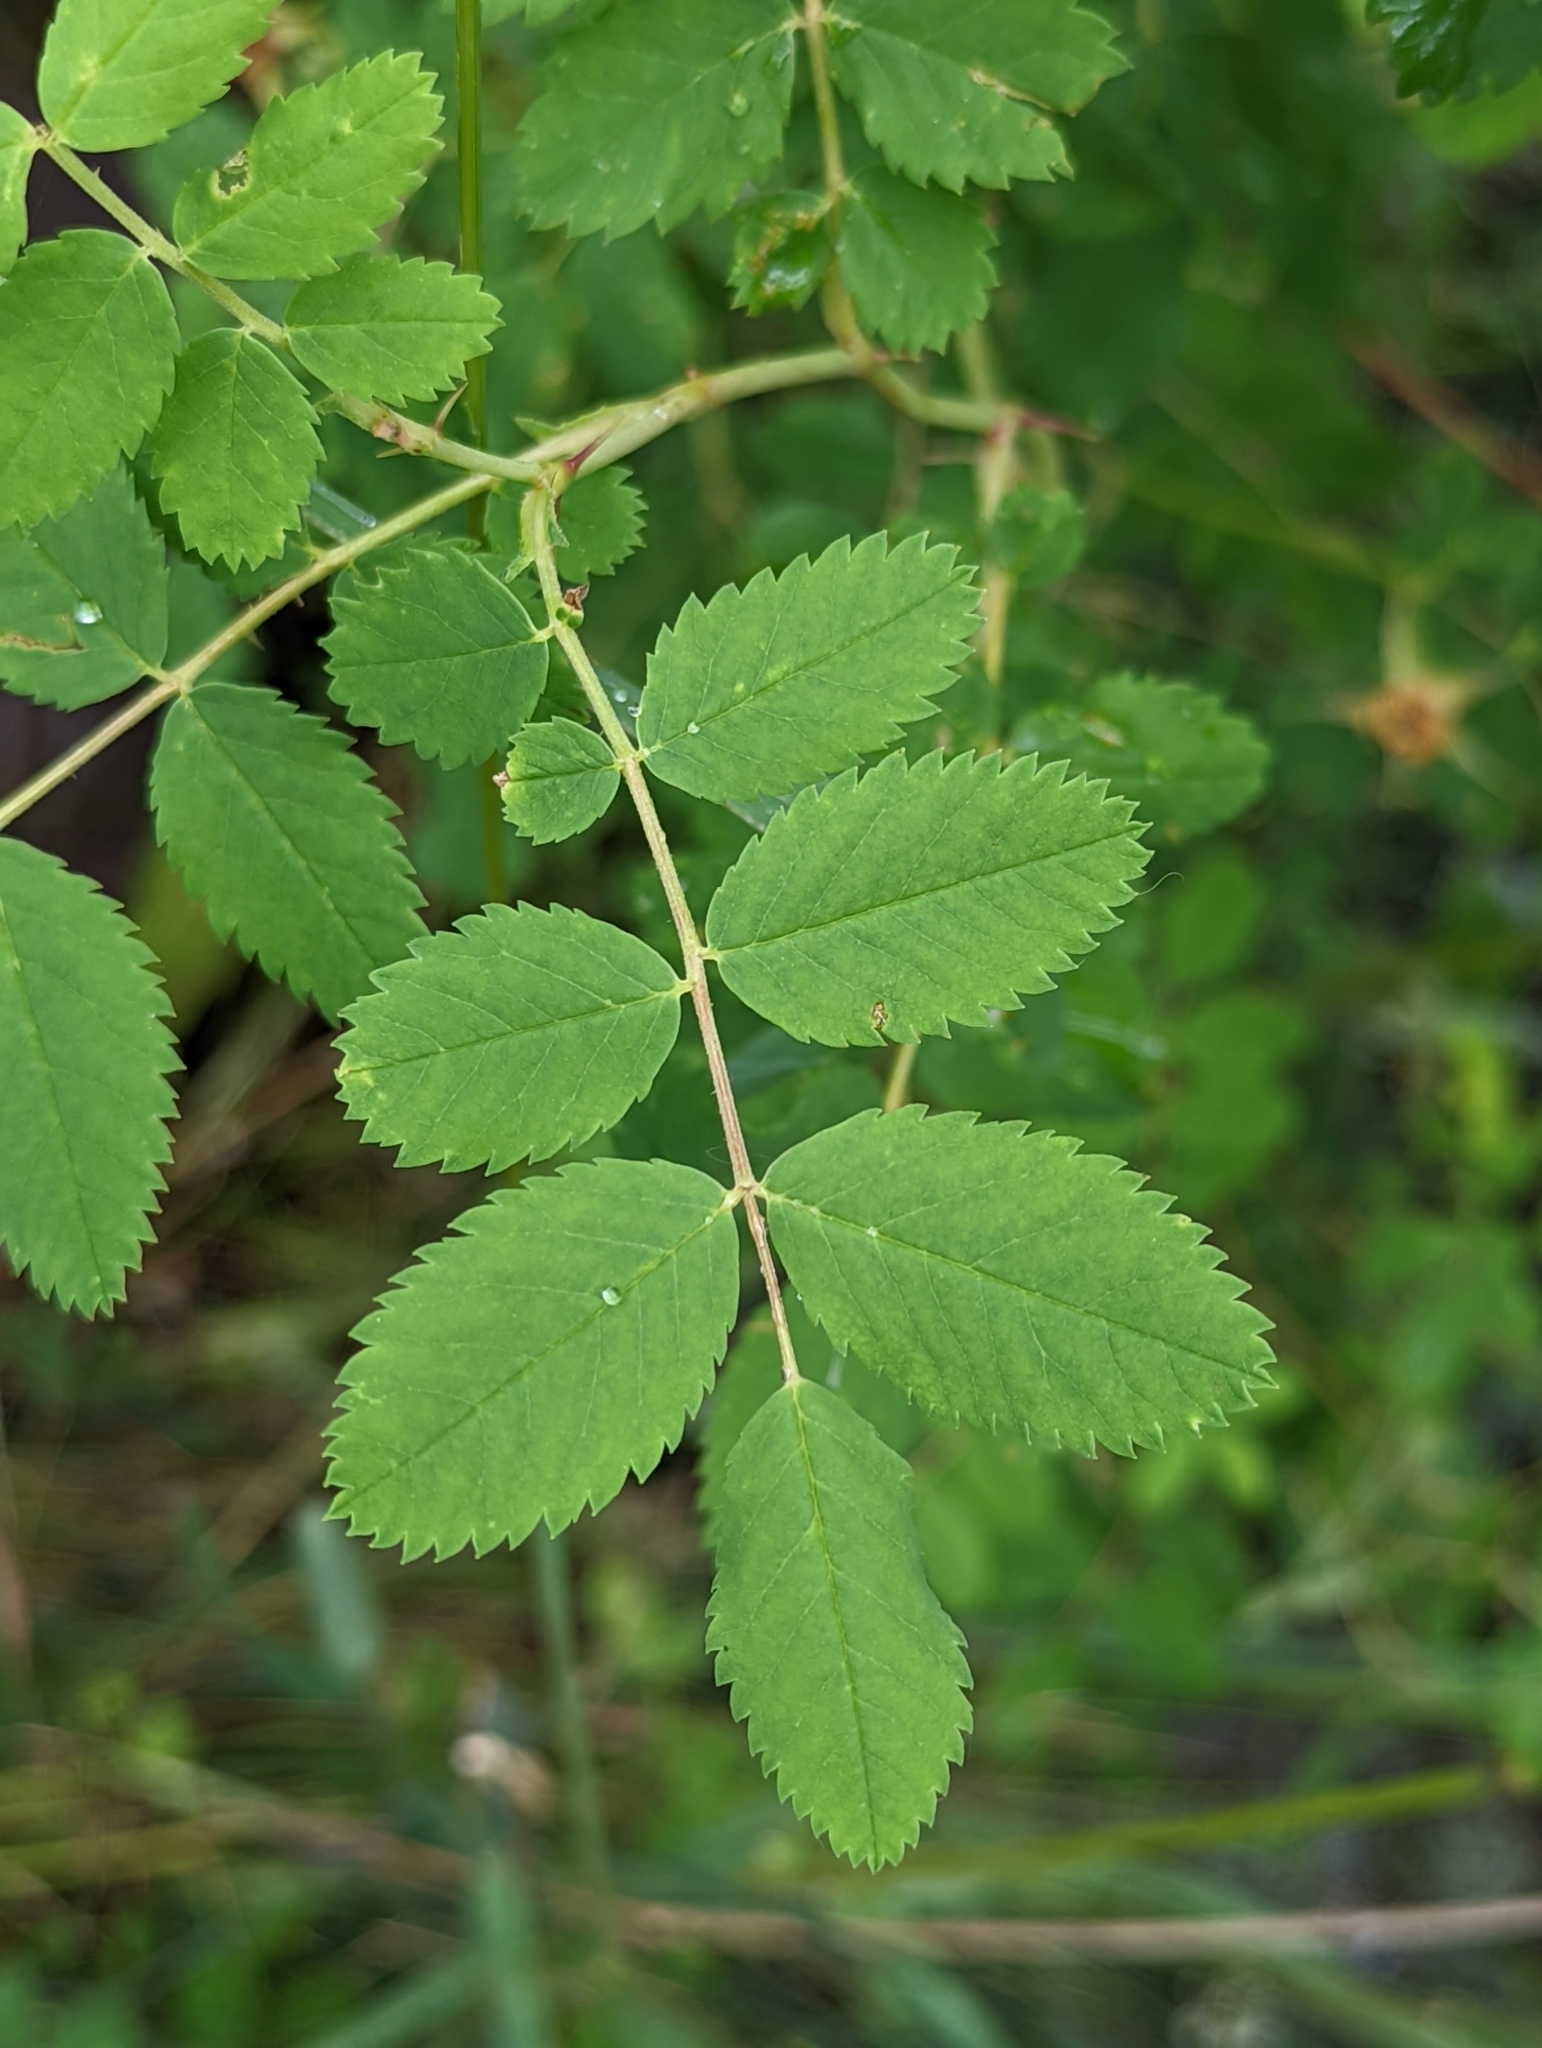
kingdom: Plantae
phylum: Tracheophyta
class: Magnoliopsida
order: Rosales
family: Rosaceae
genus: Rosa
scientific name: Rosa woodsii
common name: Woods's rose
